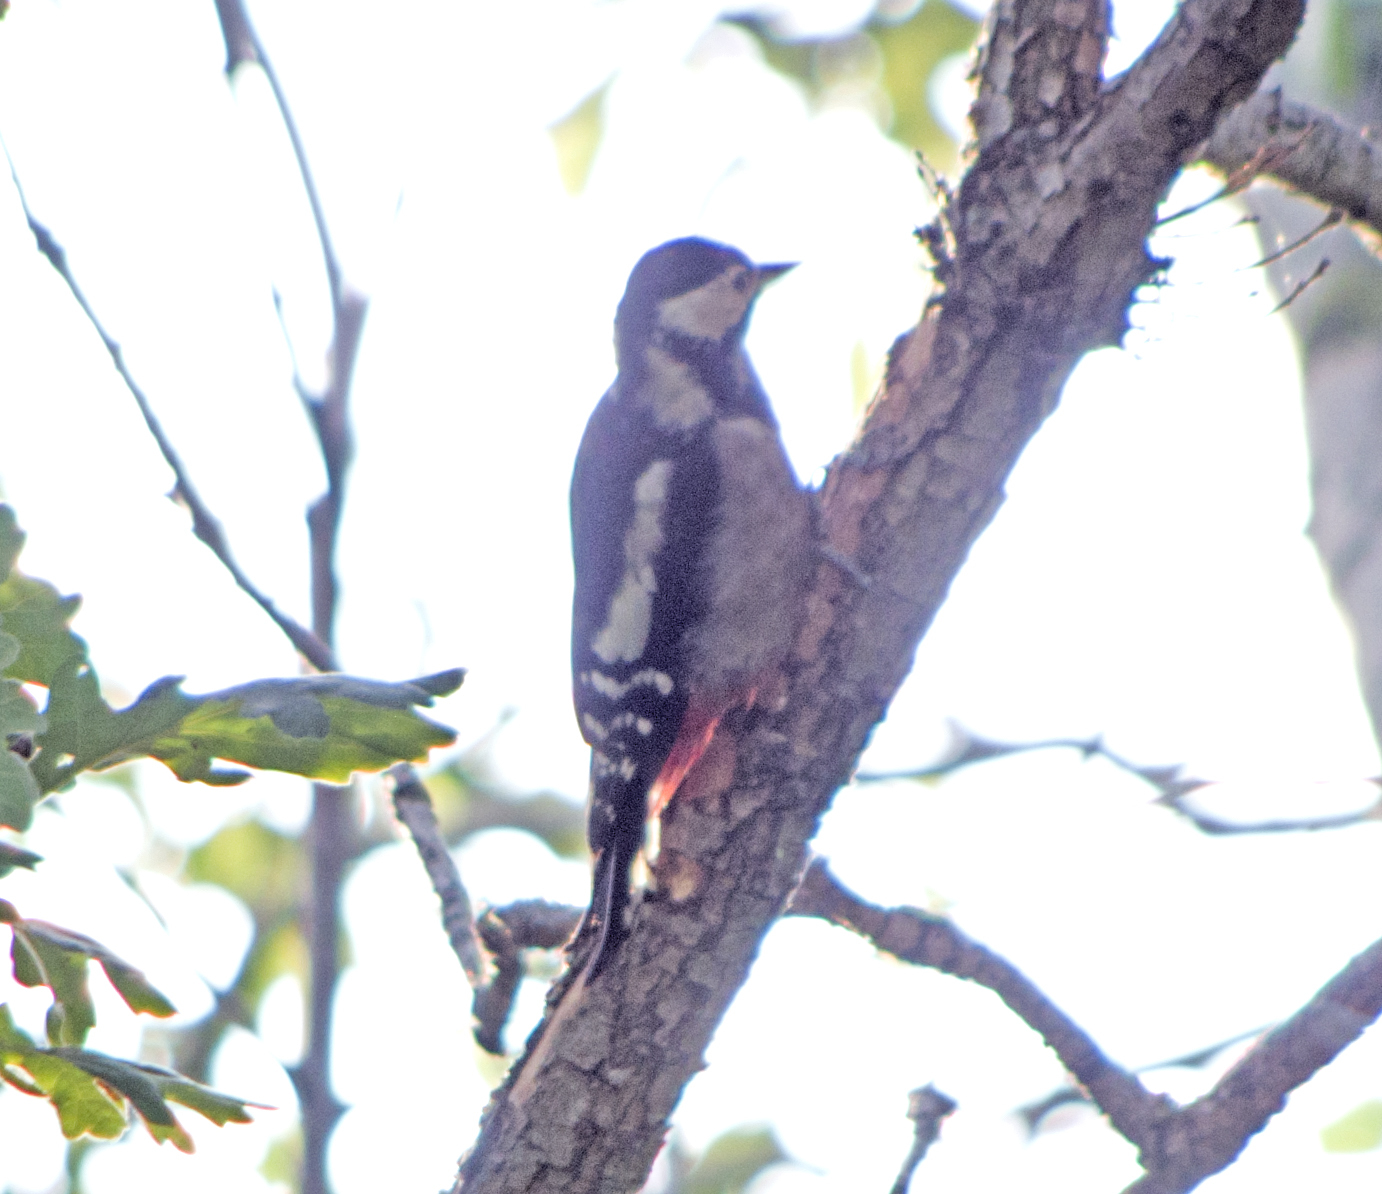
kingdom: Animalia
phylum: Chordata
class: Aves
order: Piciformes
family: Picidae
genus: Dendrocopos
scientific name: Dendrocopos major
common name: Great spotted woodpecker
